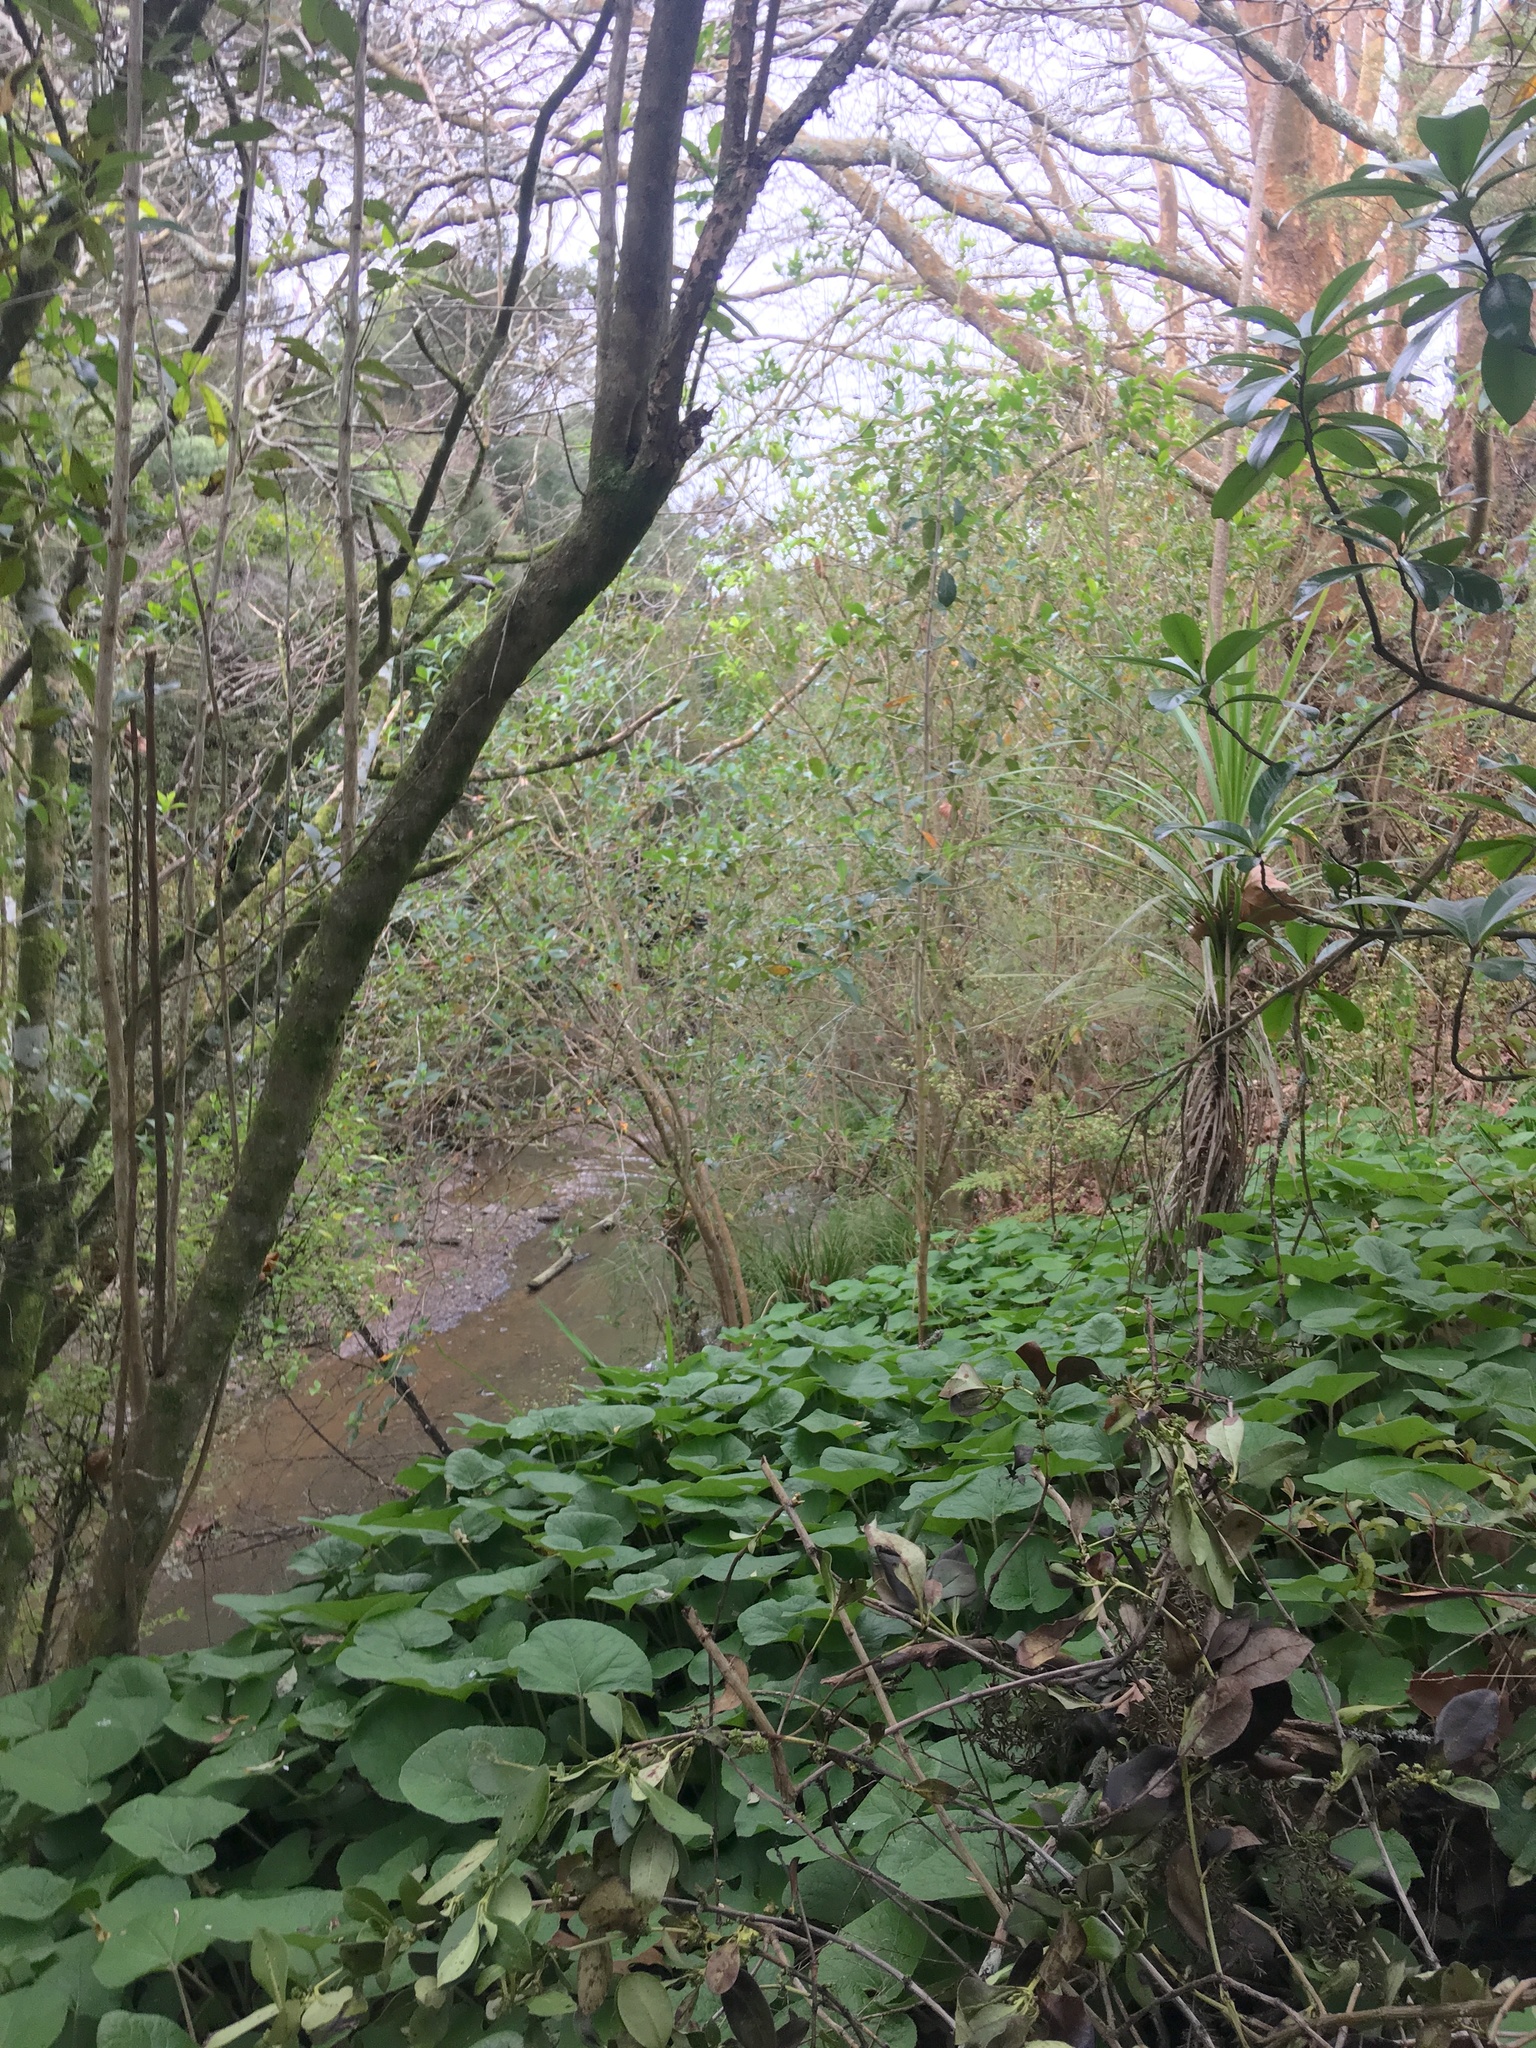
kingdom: Plantae
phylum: Tracheophyta
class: Magnoliopsida
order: Asterales
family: Asteraceae
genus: Petasites
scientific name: Petasites pyrenaicus
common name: Winter heliotrope
